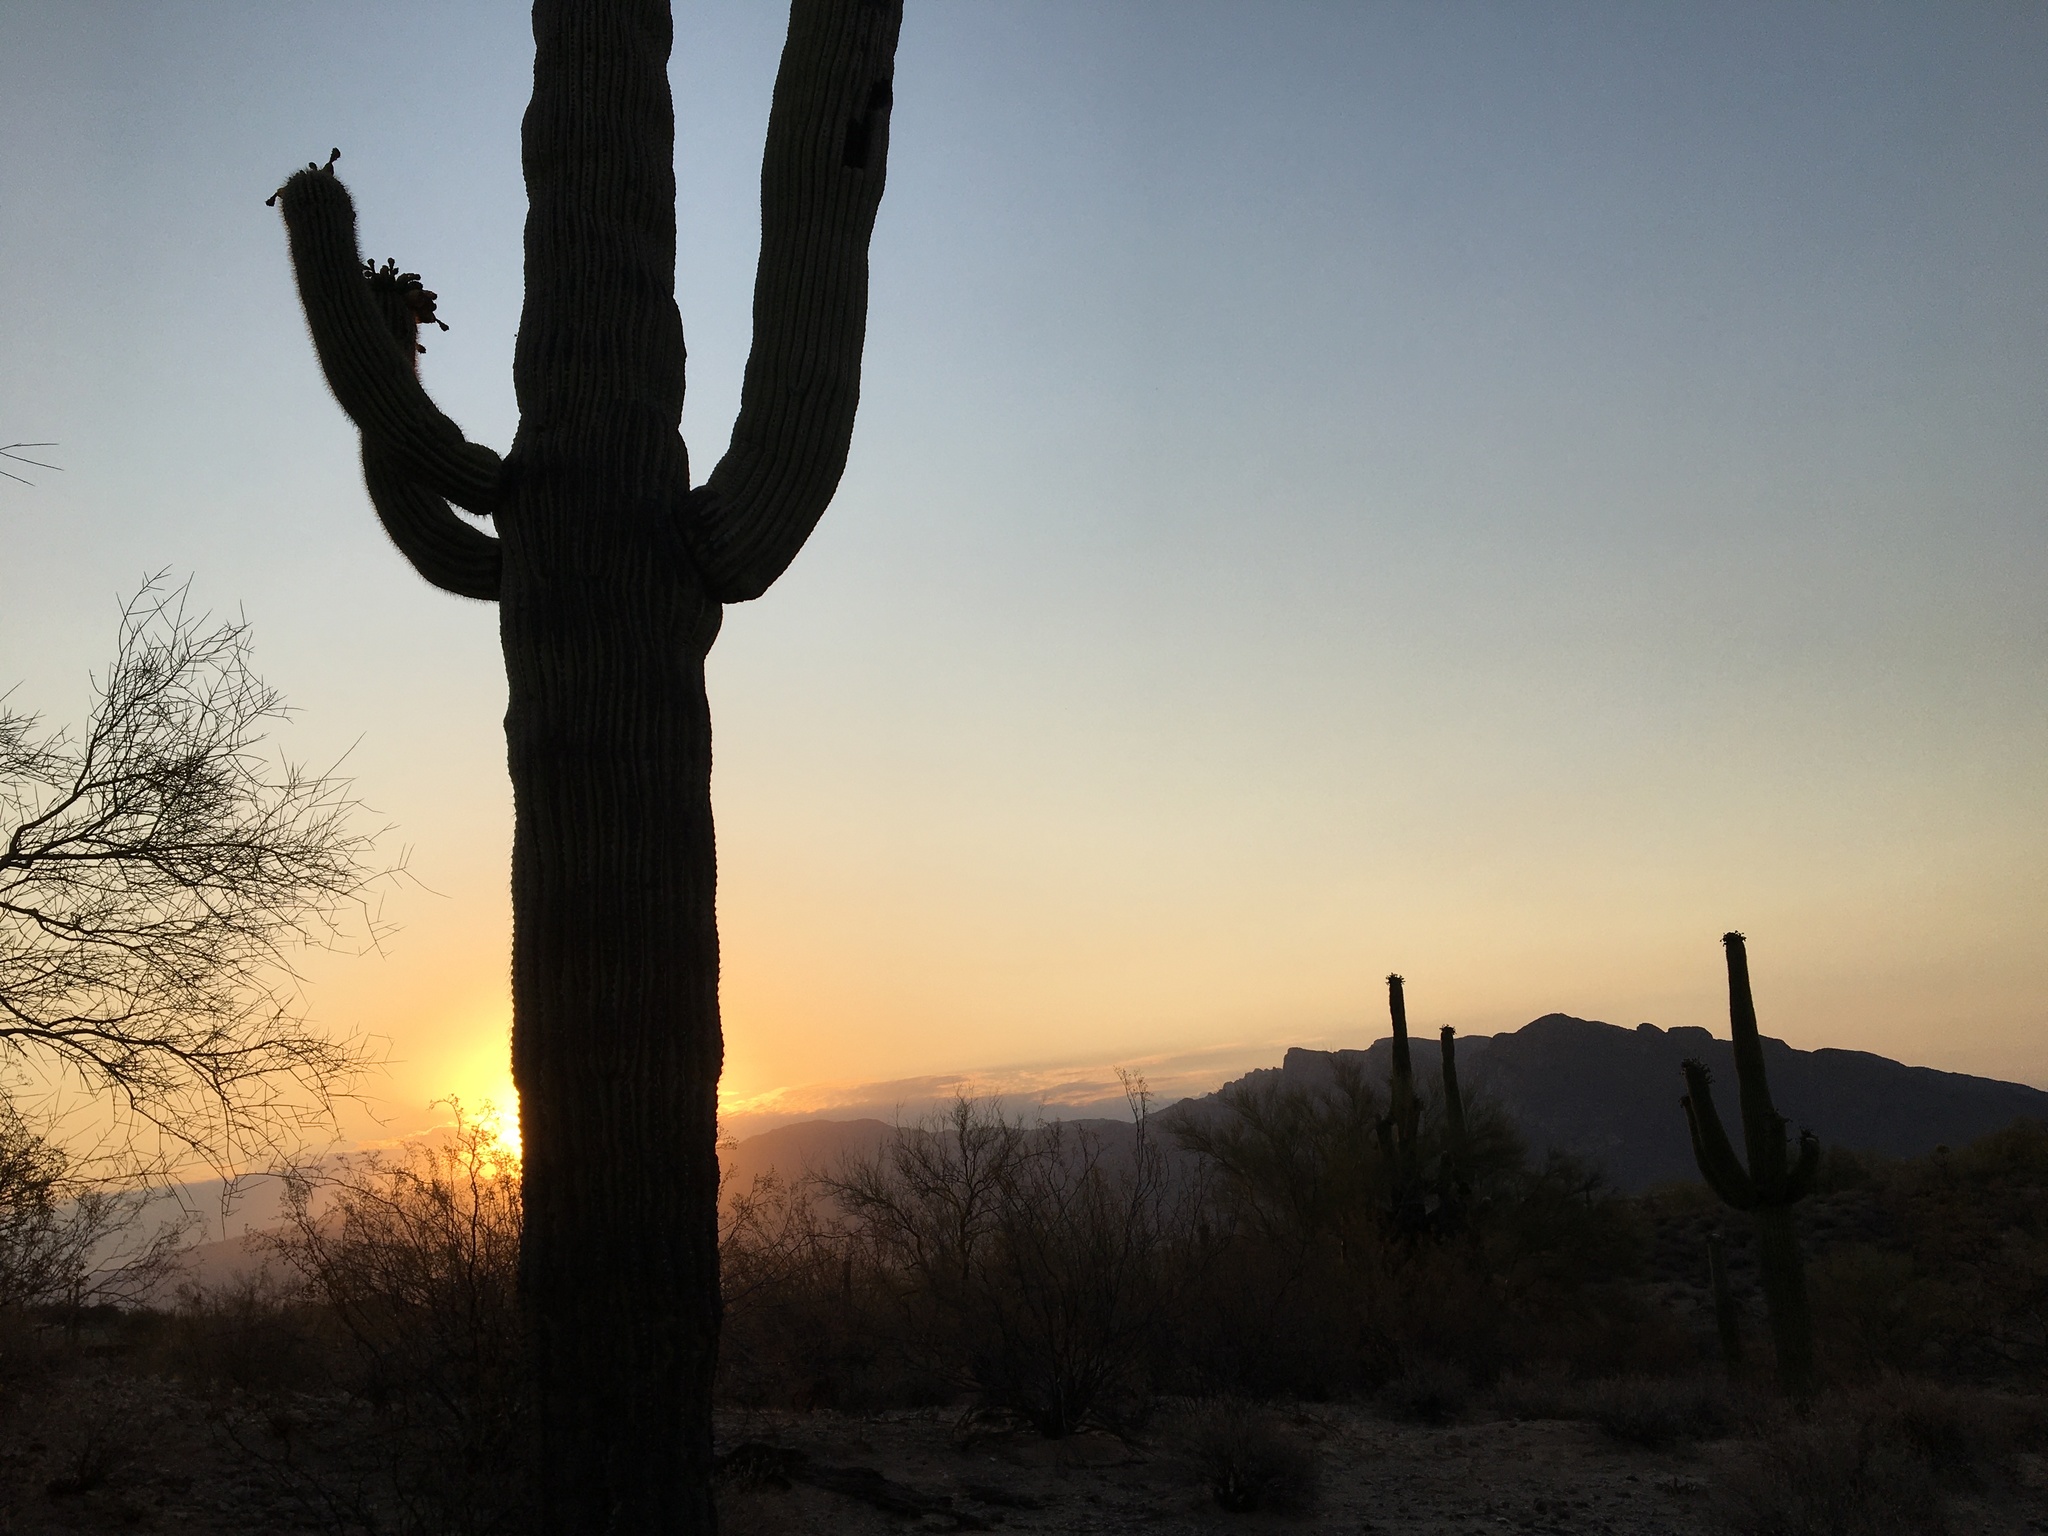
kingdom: Plantae
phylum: Tracheophyta
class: Magnoliopsida
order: Caryophyllales
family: Cactaceae
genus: Carnegiea
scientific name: Carnegiea gigantea
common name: Saguaro
